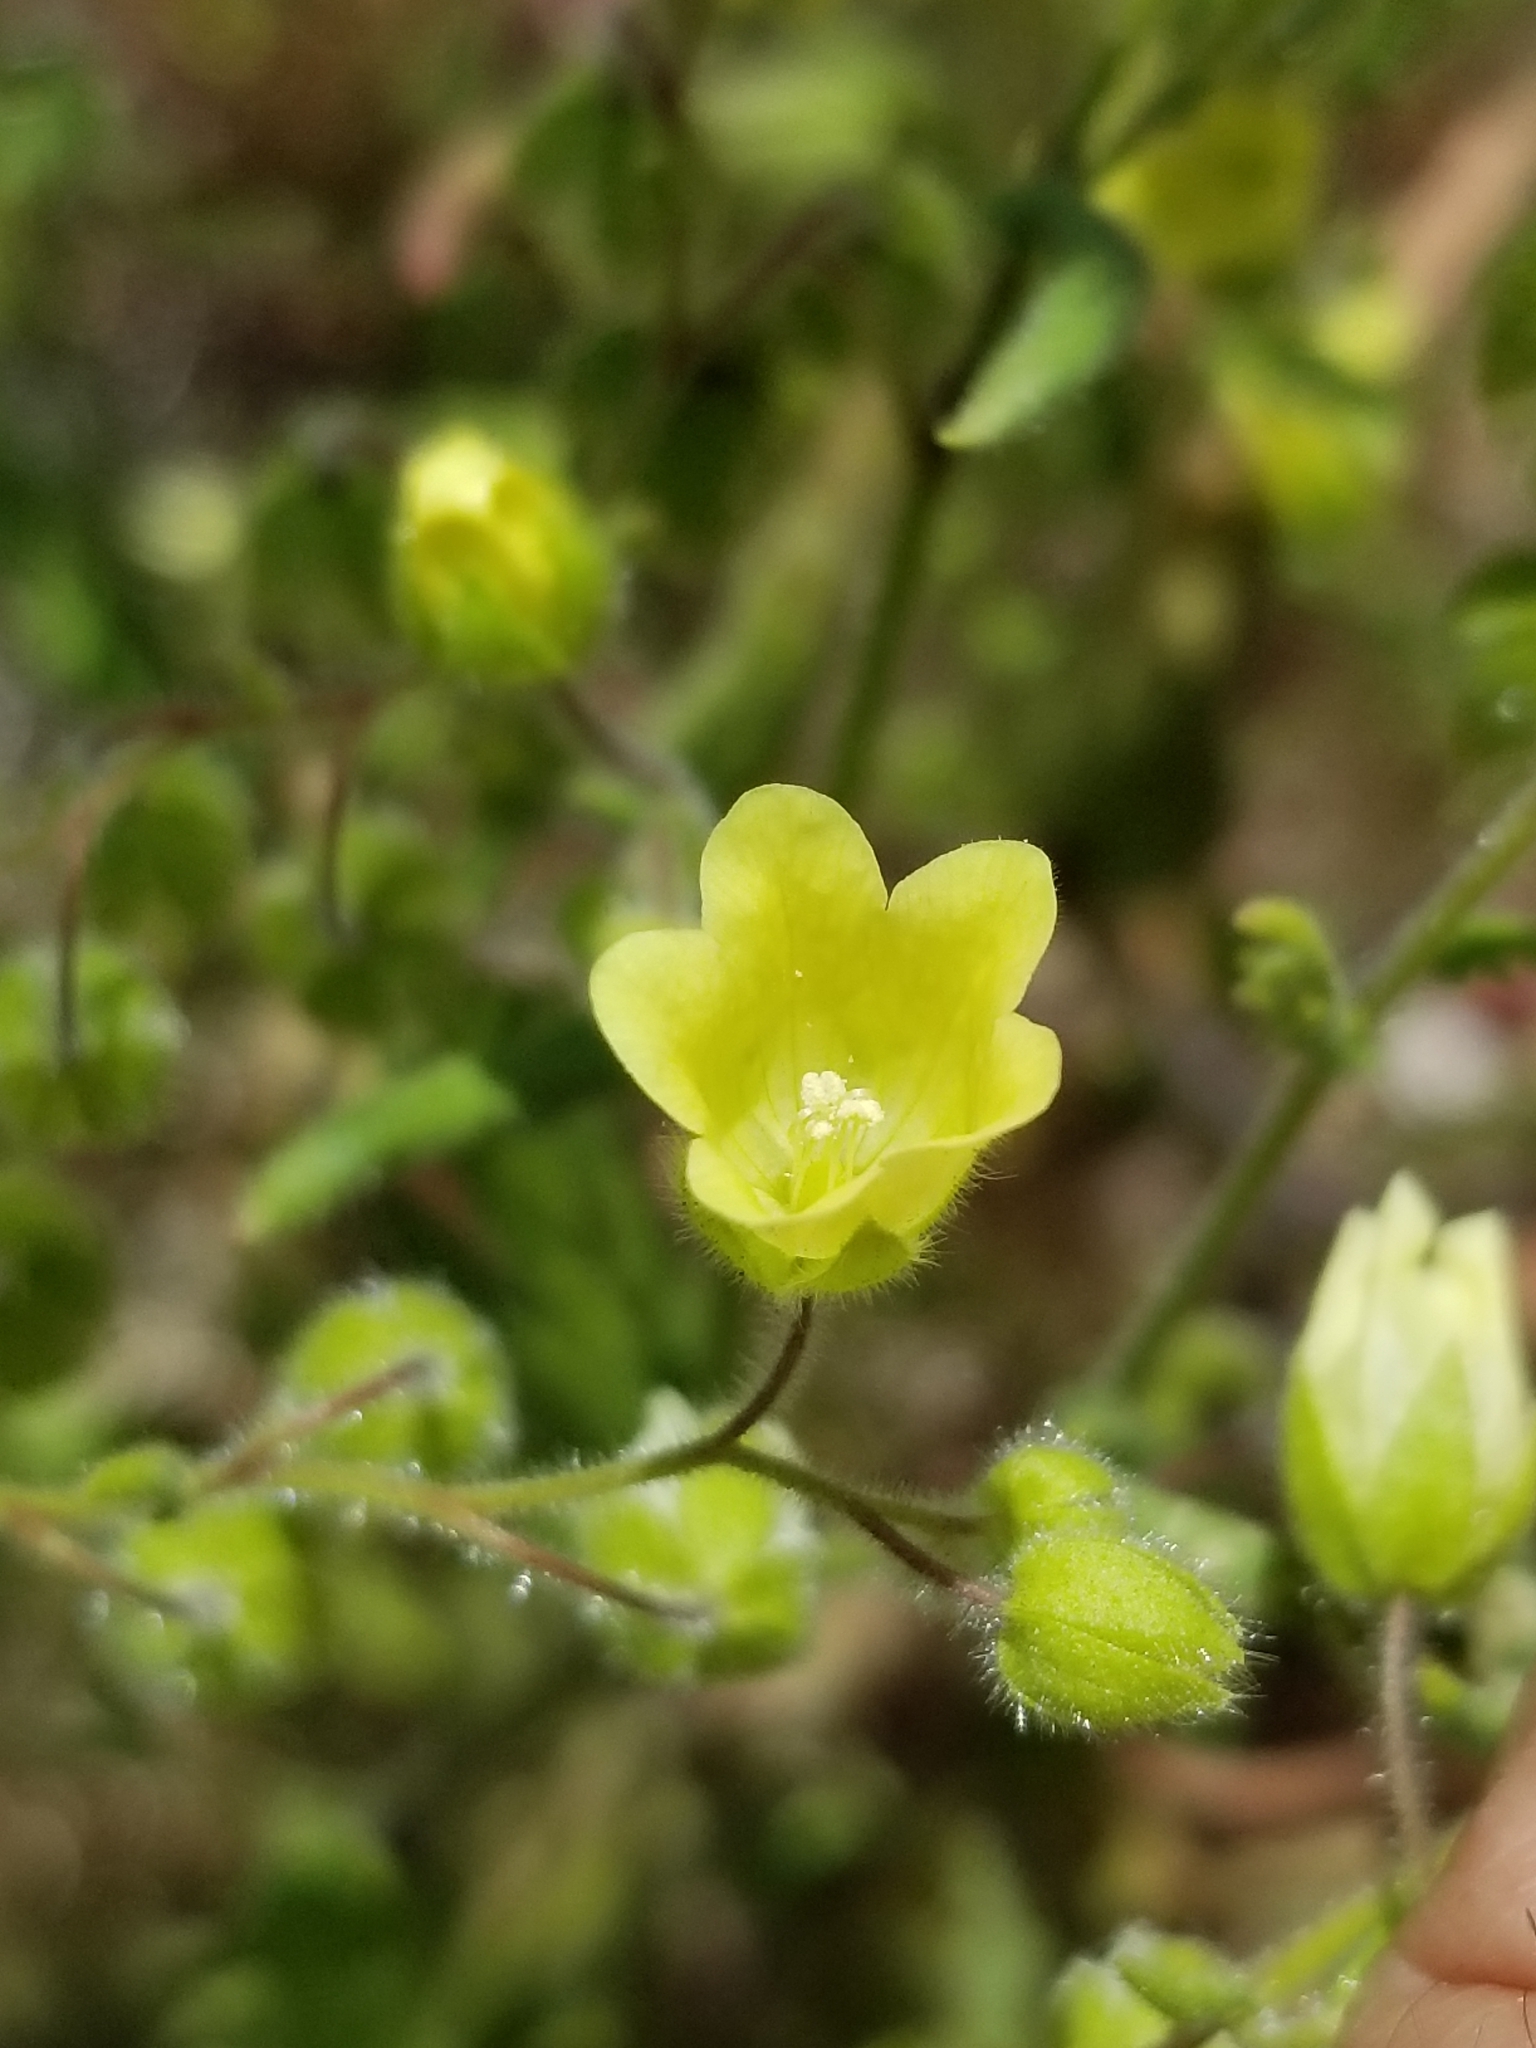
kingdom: Plantae
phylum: Tracheophyta
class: Magnoliopsida
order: Boraginales
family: Hydrophyllaceae
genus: Emmenanthe
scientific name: Emmenanthe penduliflora
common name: Whispering-bells
